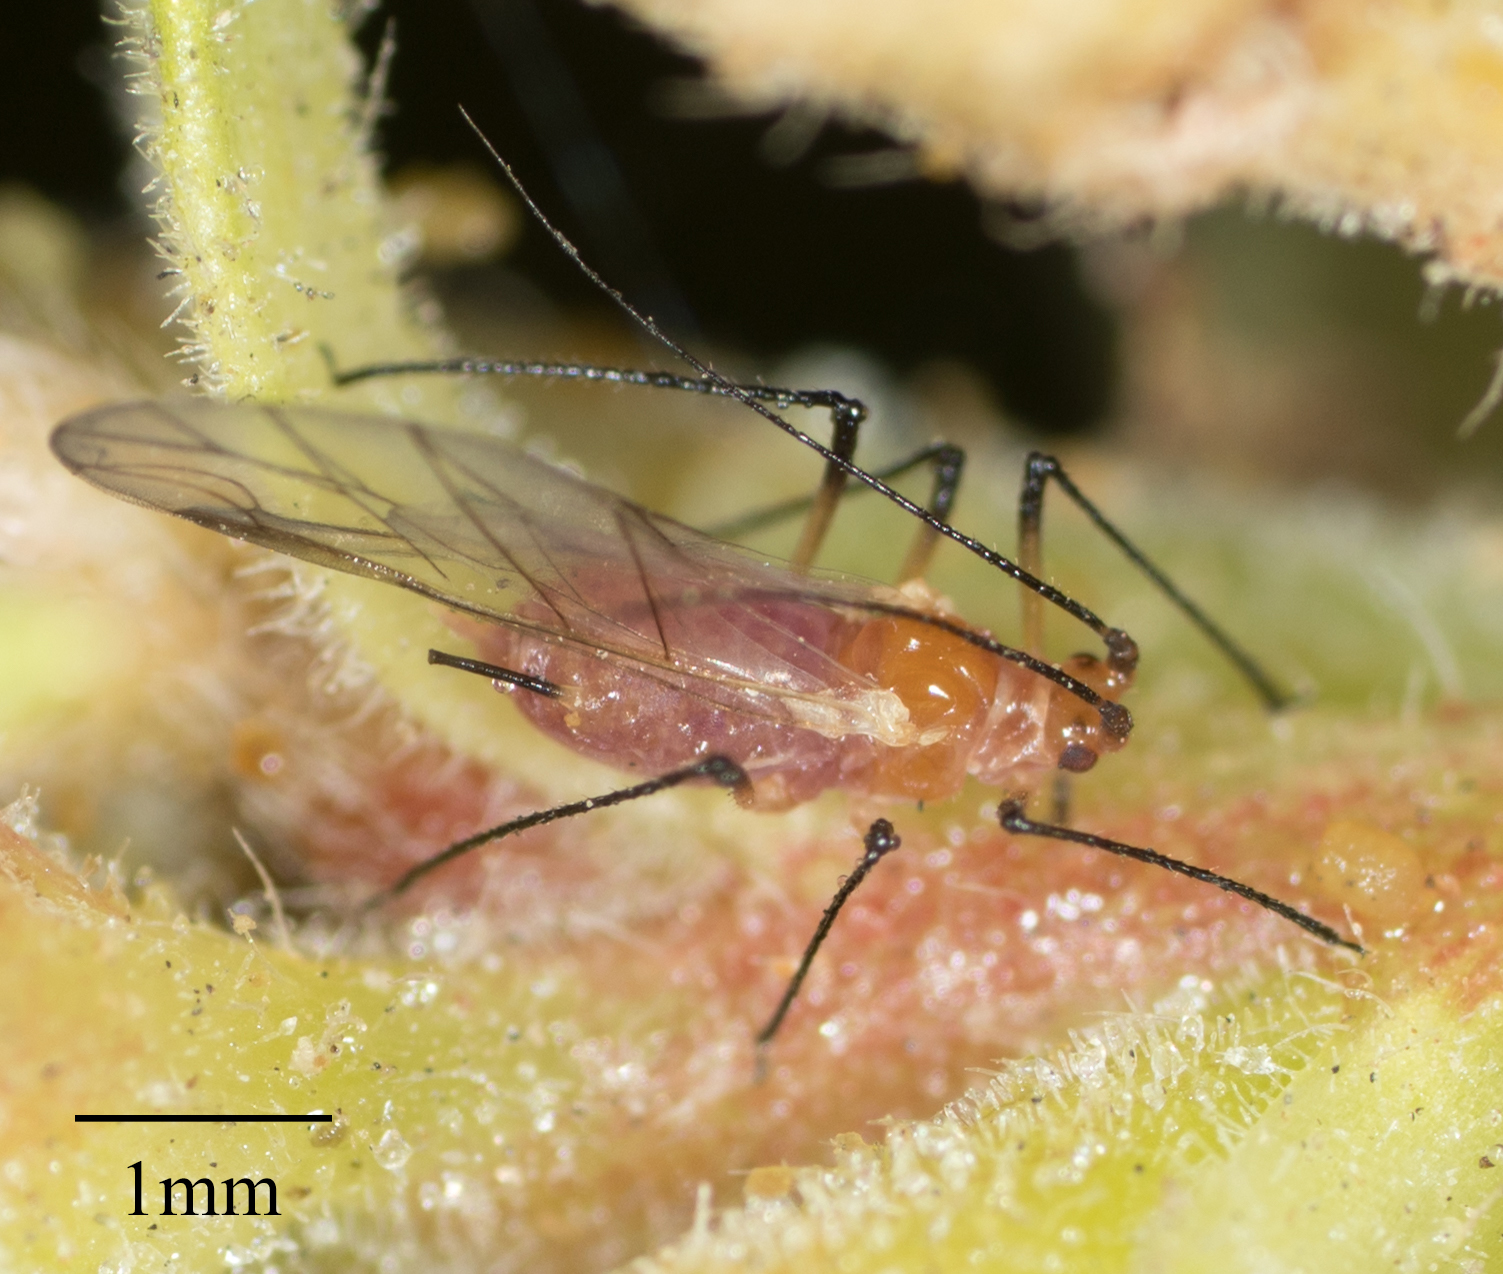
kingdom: Animalia
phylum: Arthropoda
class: Insecta
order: Hemiptera
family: Aphididae
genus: Macrosiphum
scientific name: Macrosiphum gaurae
